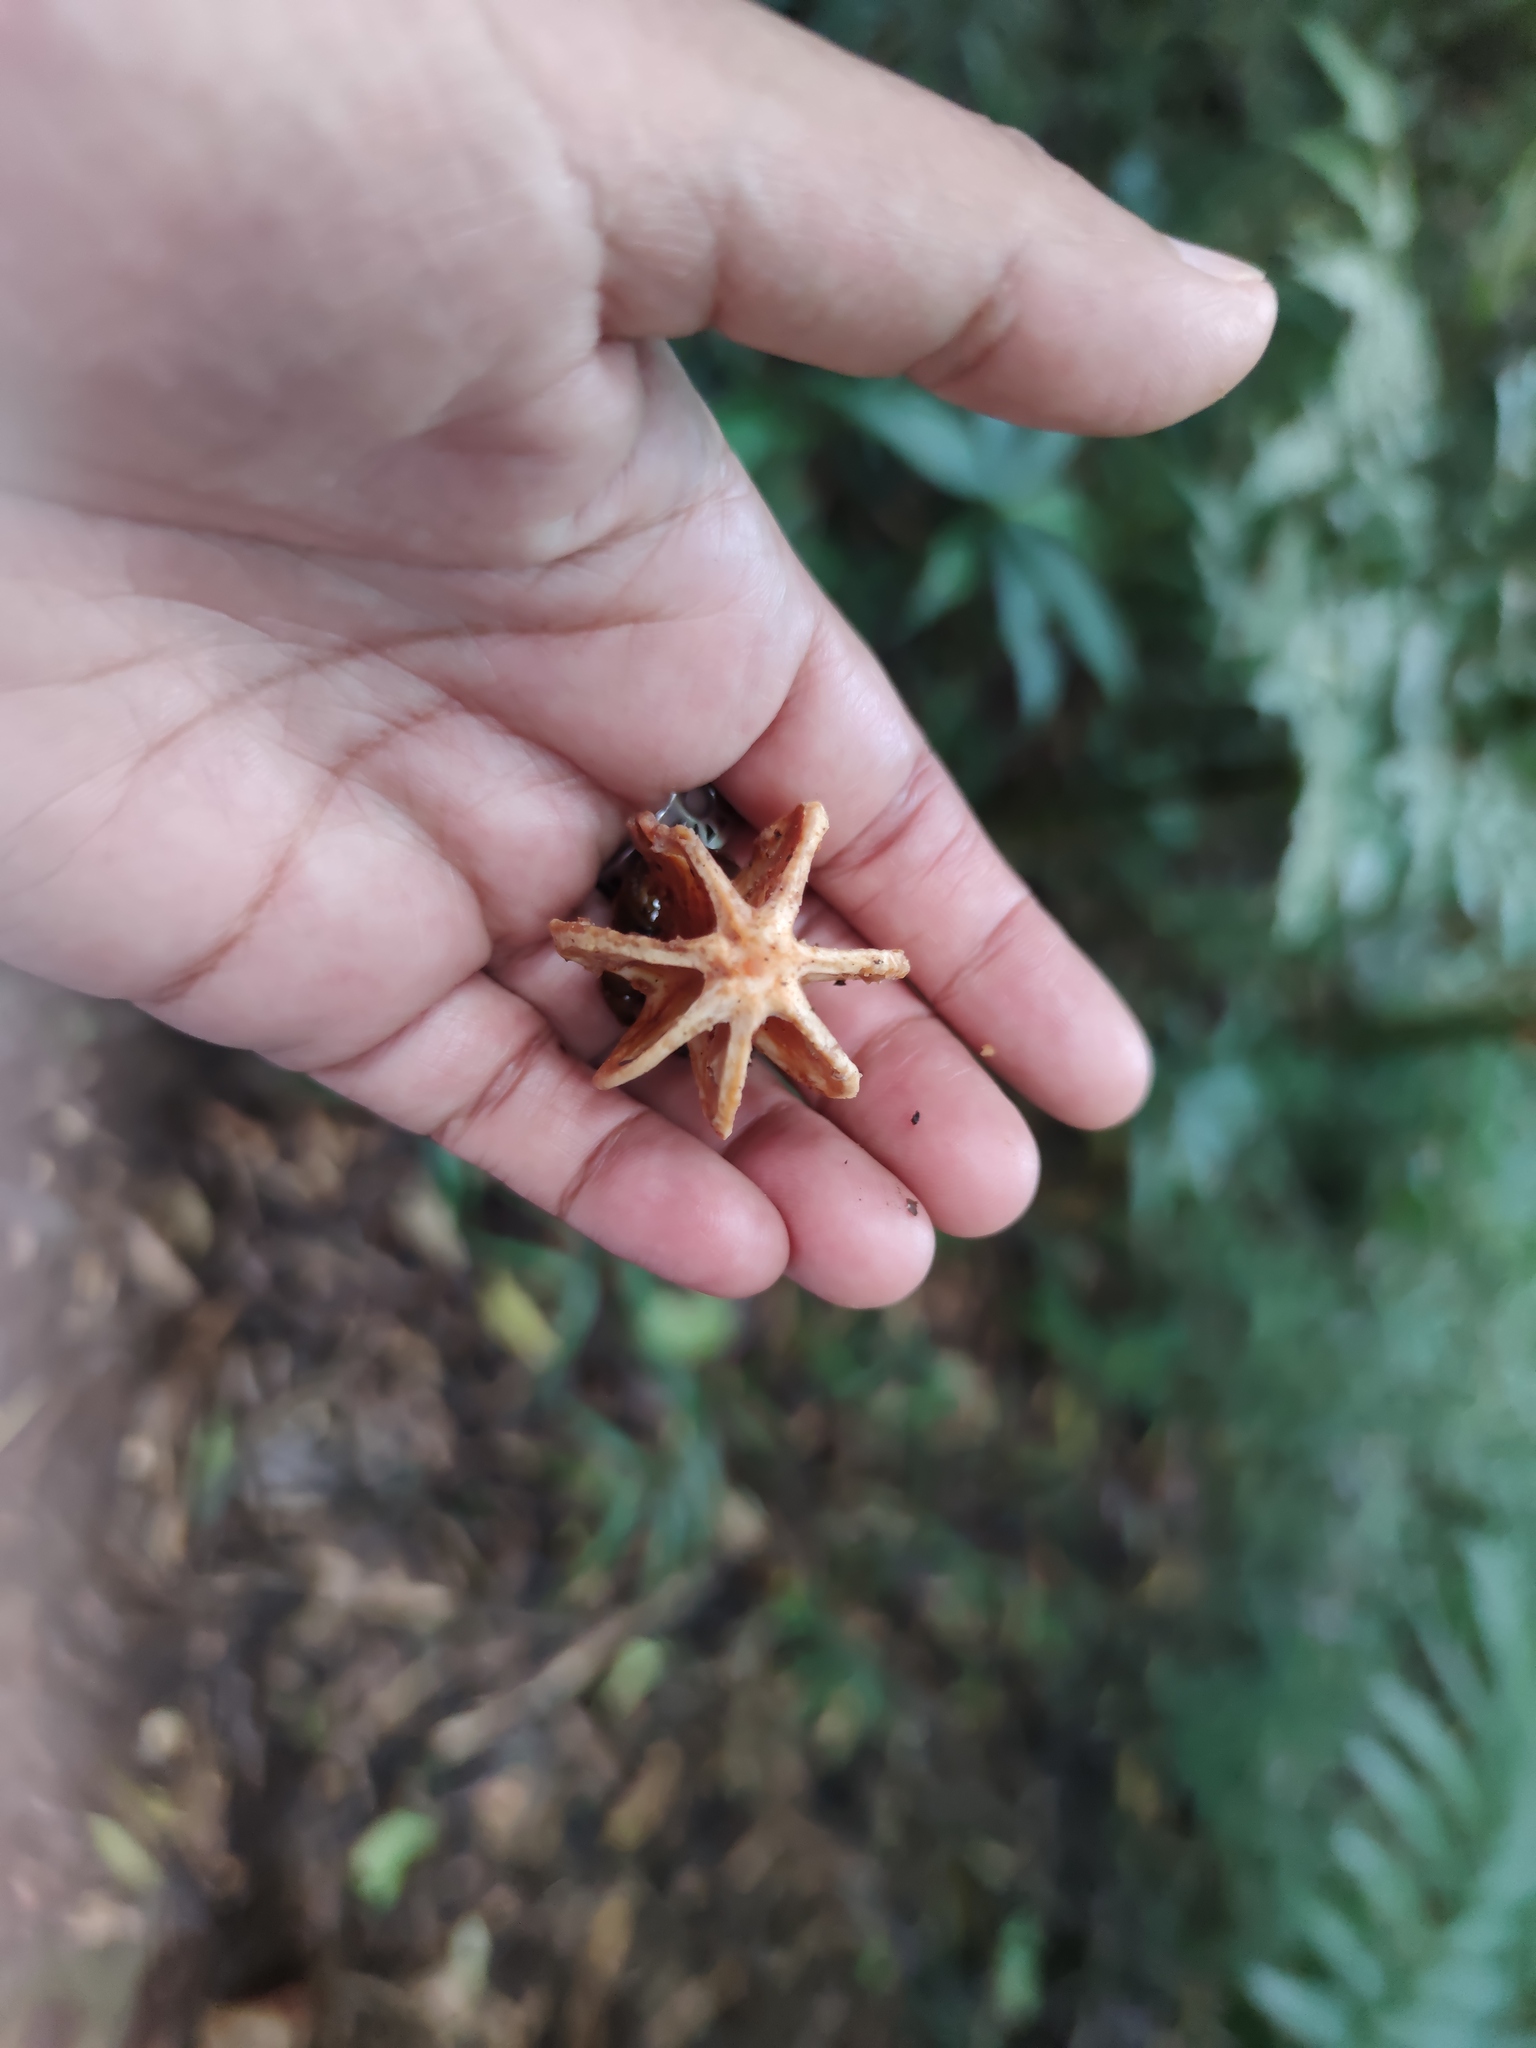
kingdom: Plantae
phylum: Tracheophyta
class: Magnoliopsida
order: Malpighiales
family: Clusiaceae
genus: Clusia
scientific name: Clusia rosea
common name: Scotch attorney
